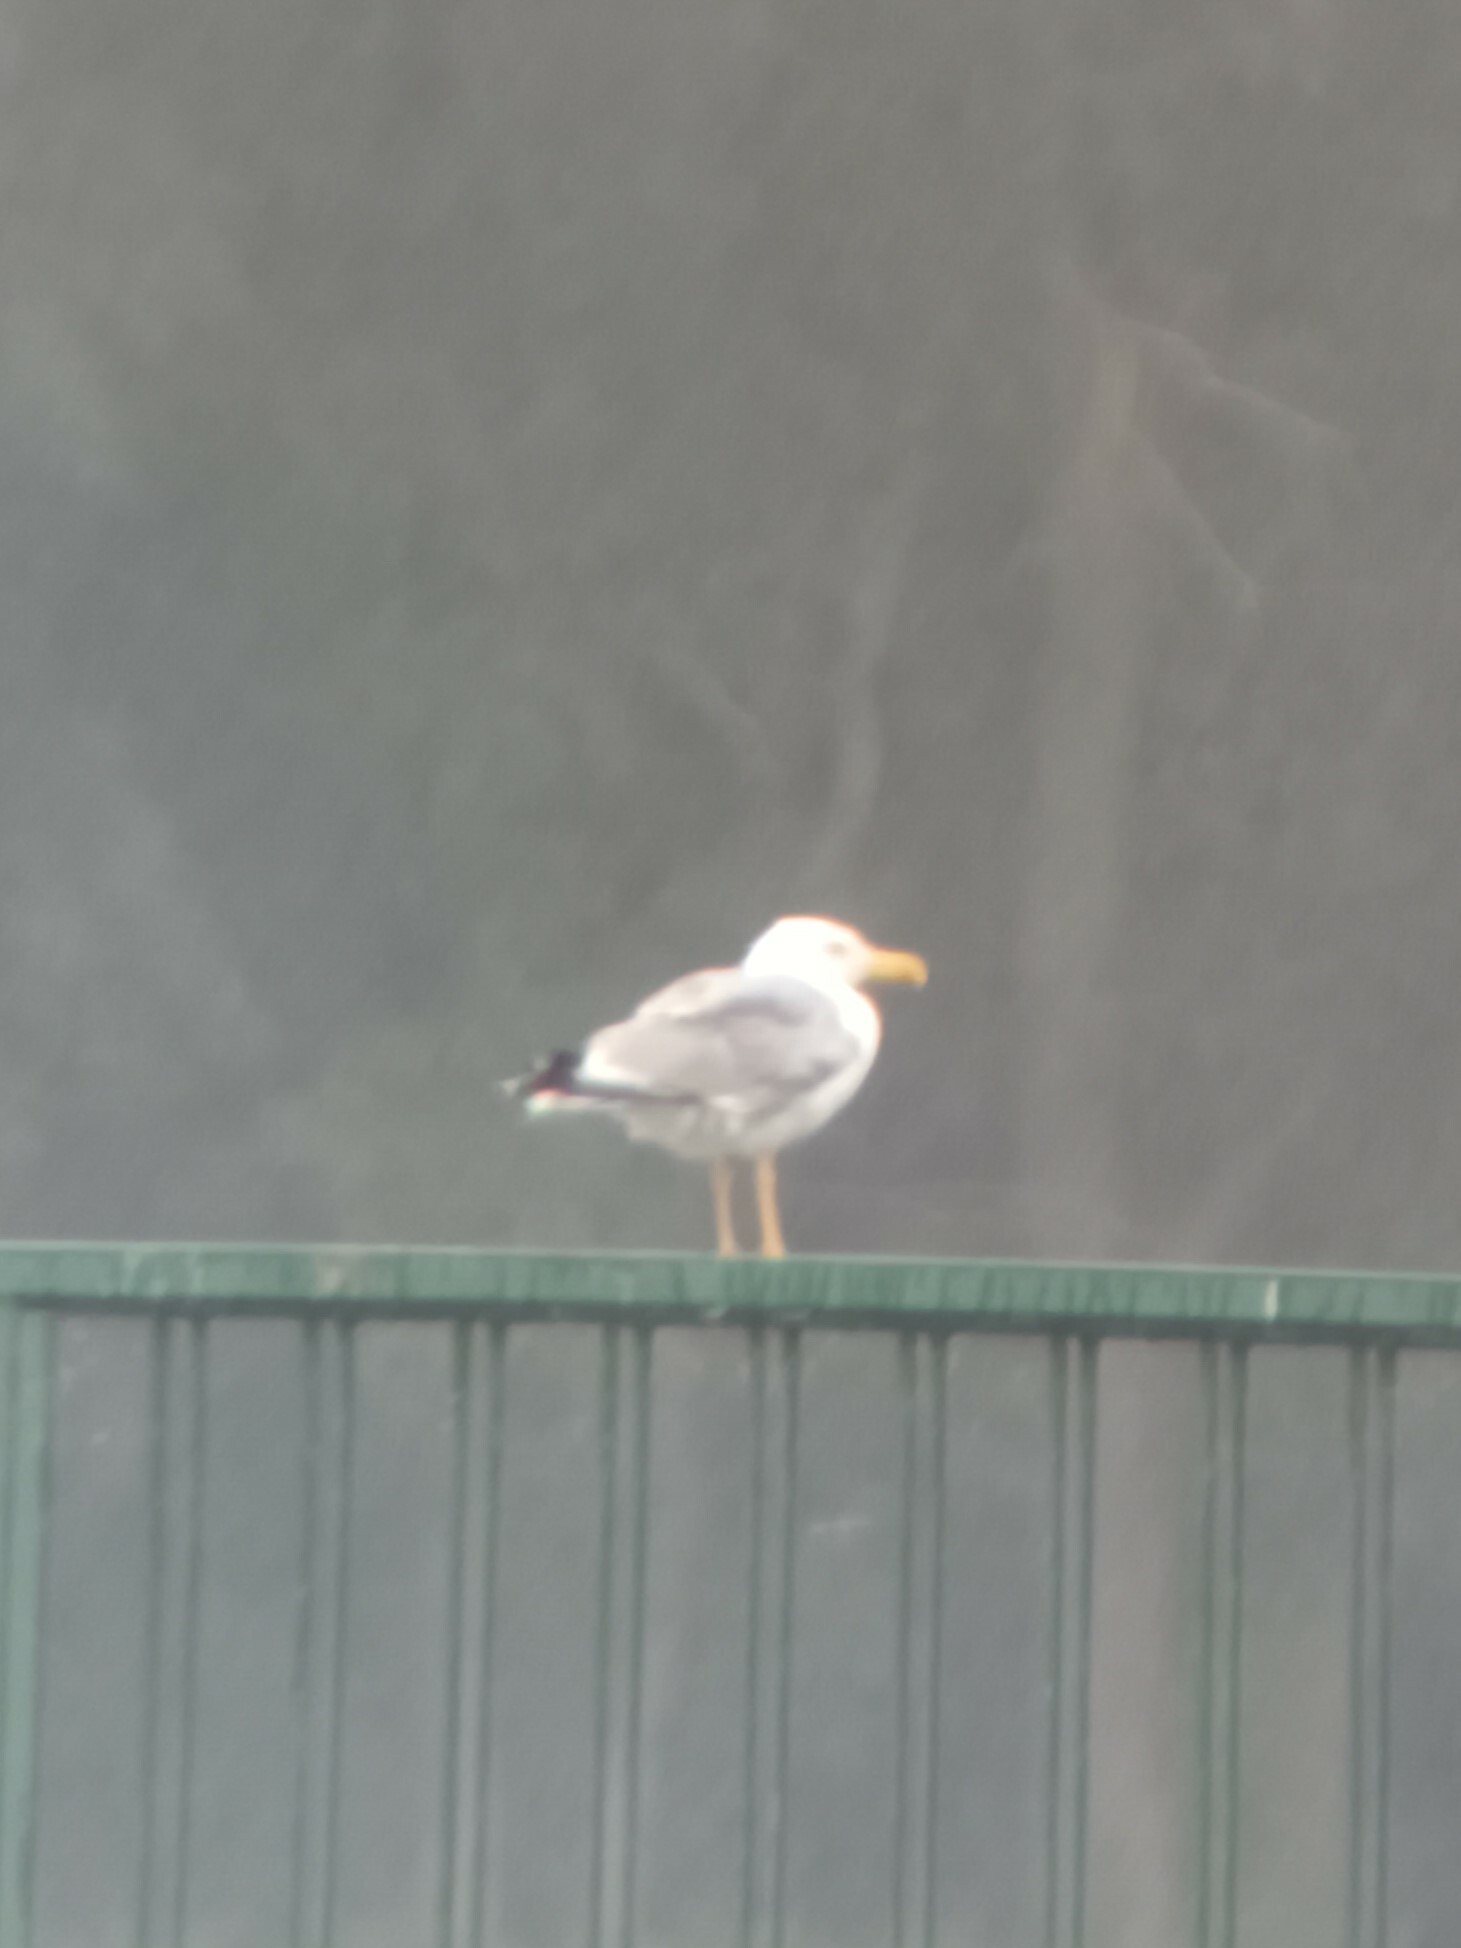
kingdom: Animalia
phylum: Chordata
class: Aves
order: Charadriiformes
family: Laridae
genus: Larus
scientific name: Larus michahellis
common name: Yellow-legged gull
